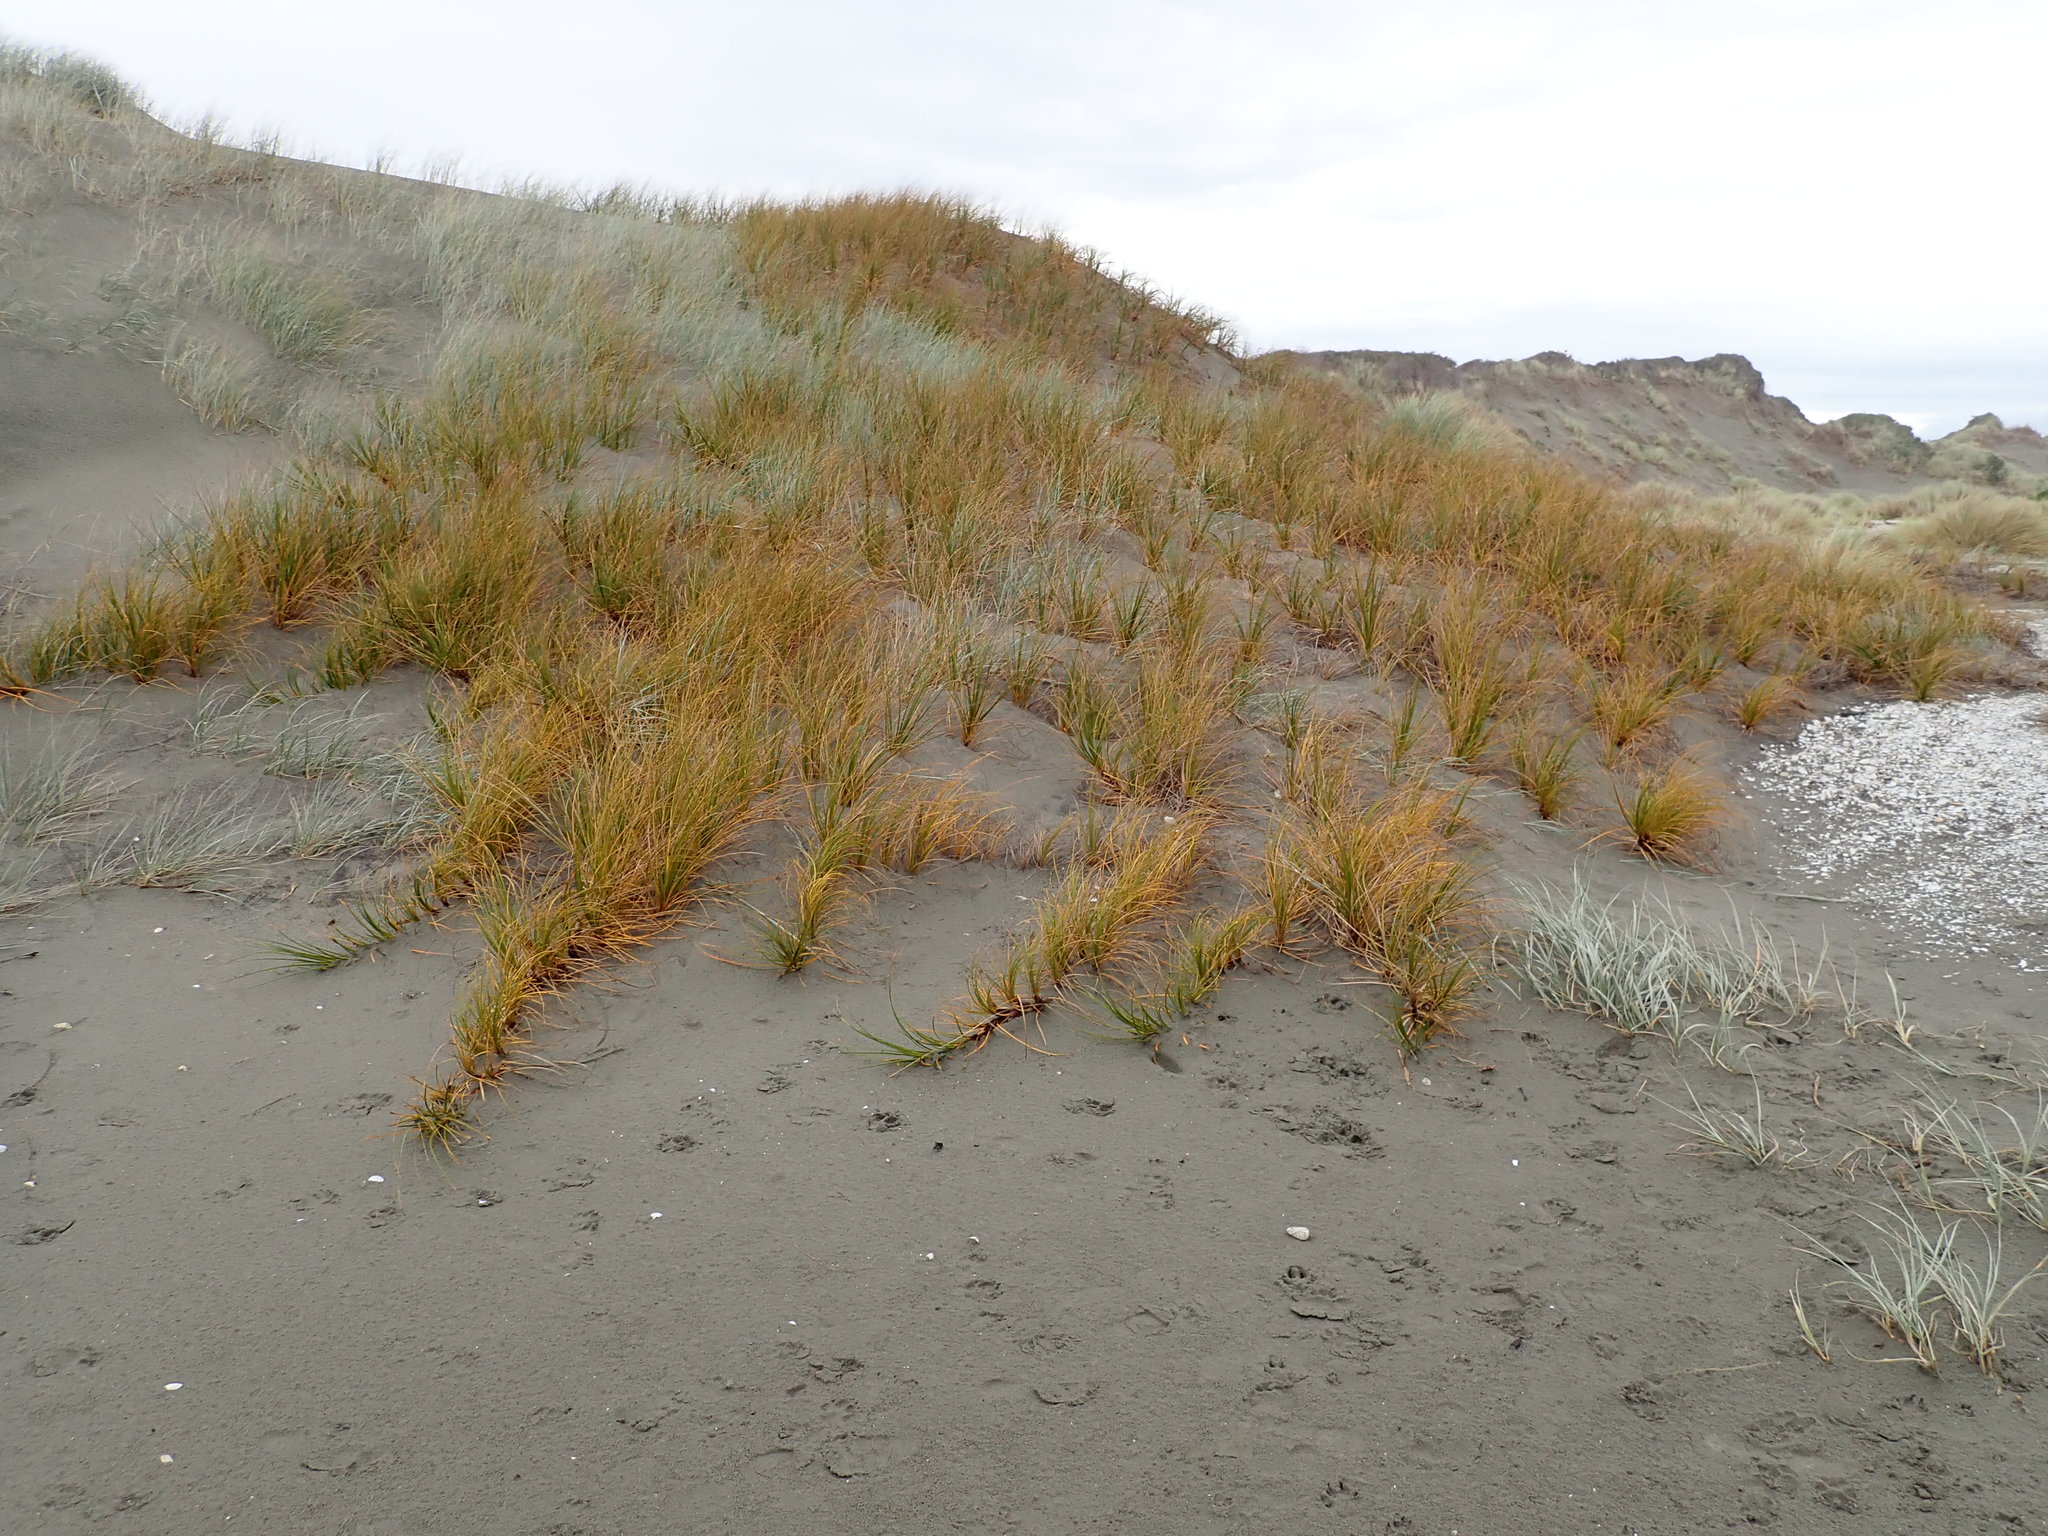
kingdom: Plantae
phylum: Tracheophyta
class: Liliopsida
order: Poales
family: Cyperaceae
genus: Ficinia
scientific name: Ficinia spiralis
